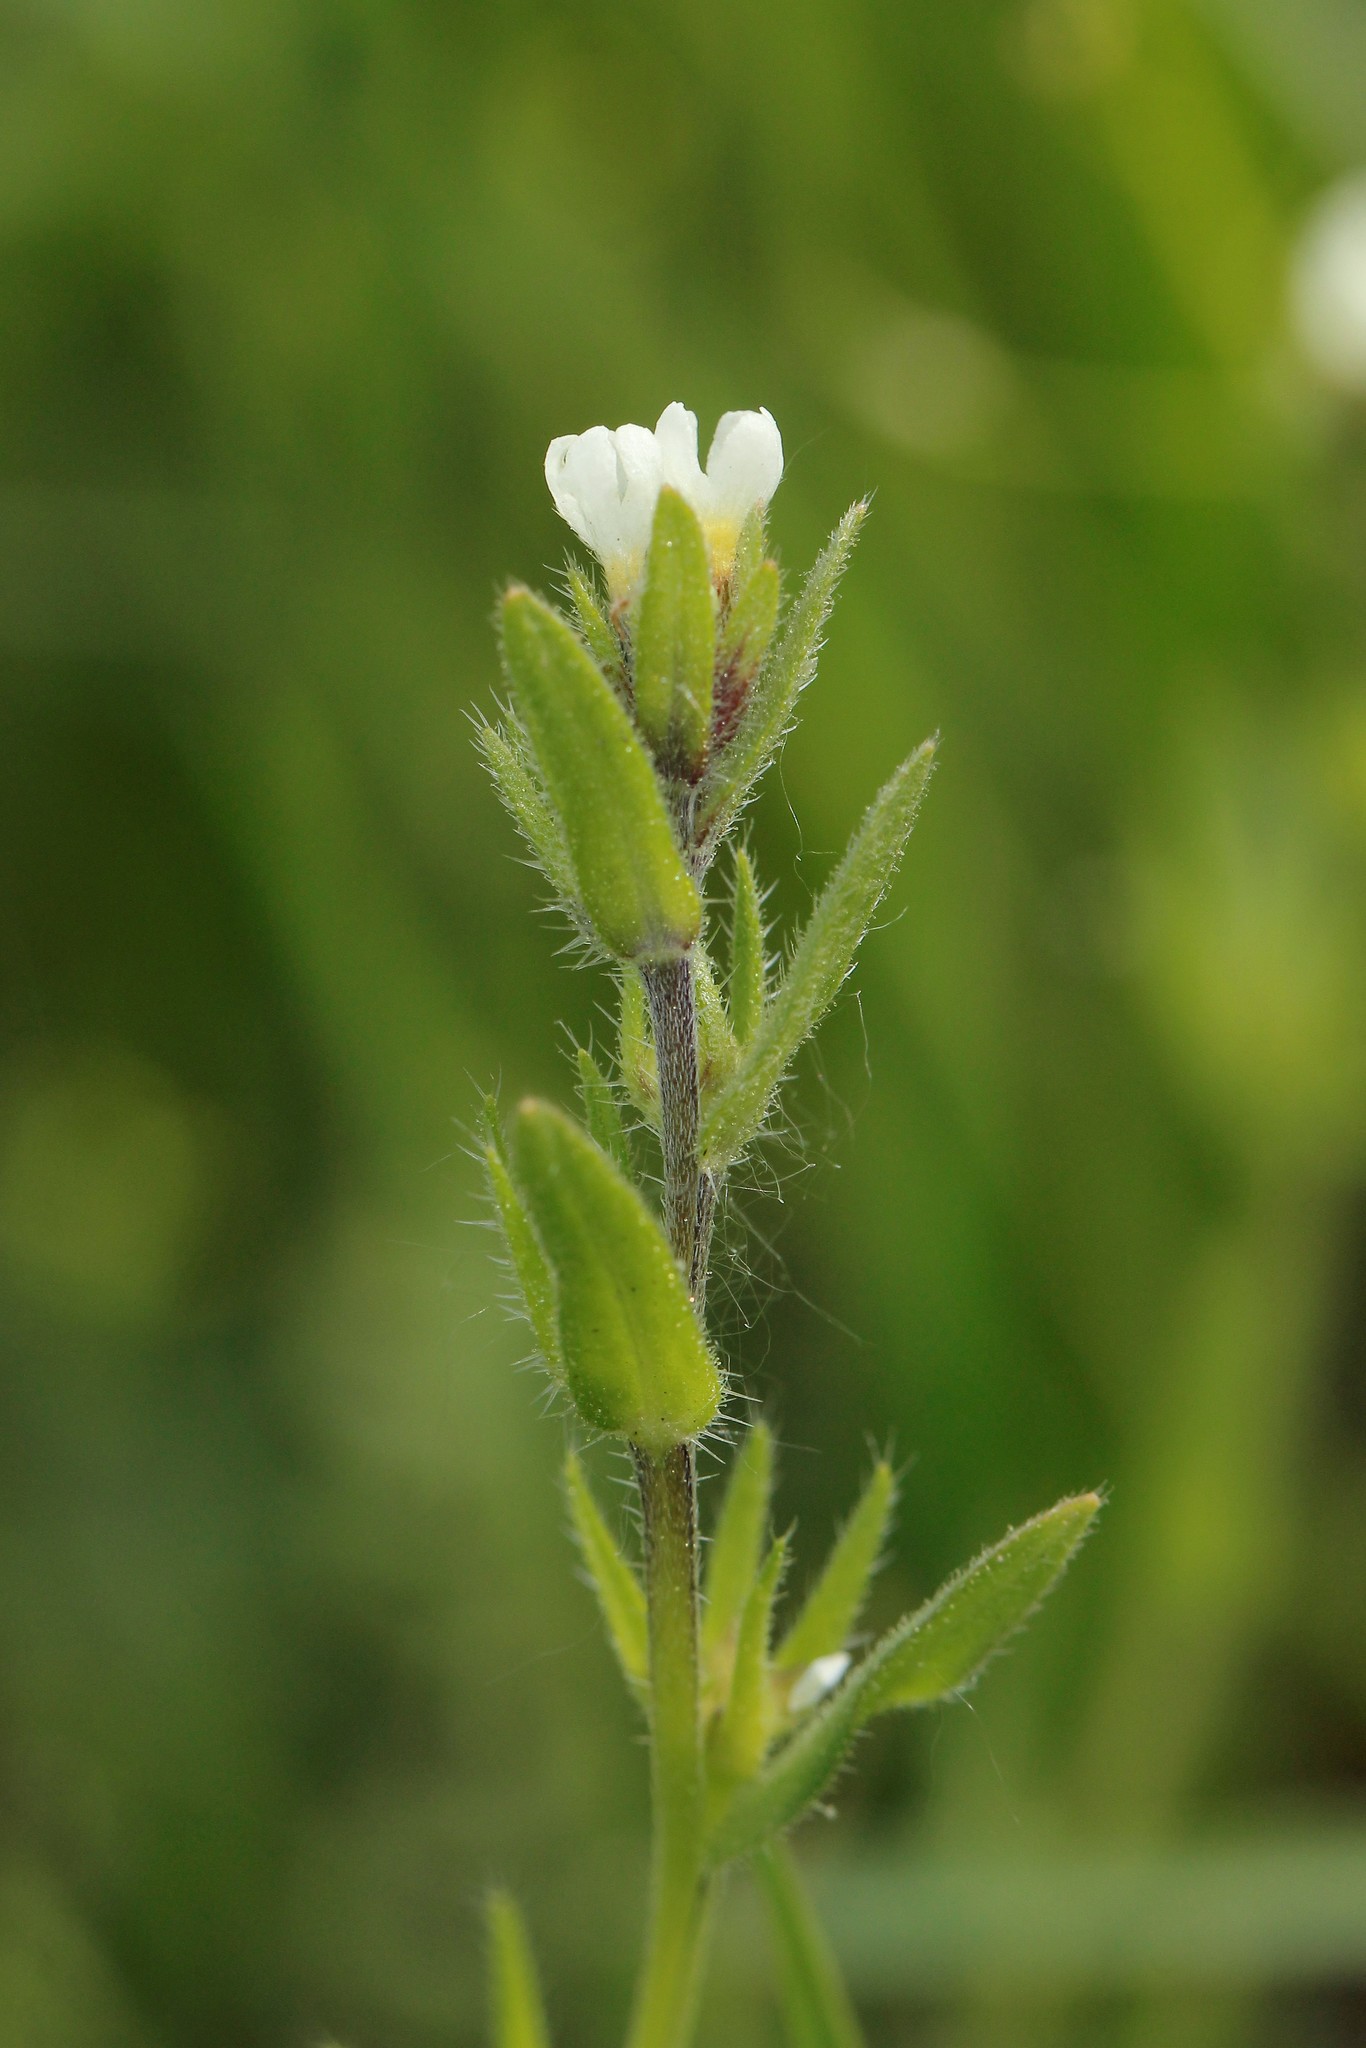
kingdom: Plantae
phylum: Tracheophyta
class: Magnoliopsida
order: Boraginales
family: Boraginaceae
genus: Buglossoides
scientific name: Buglossoides arvensis
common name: Corn gromwell
